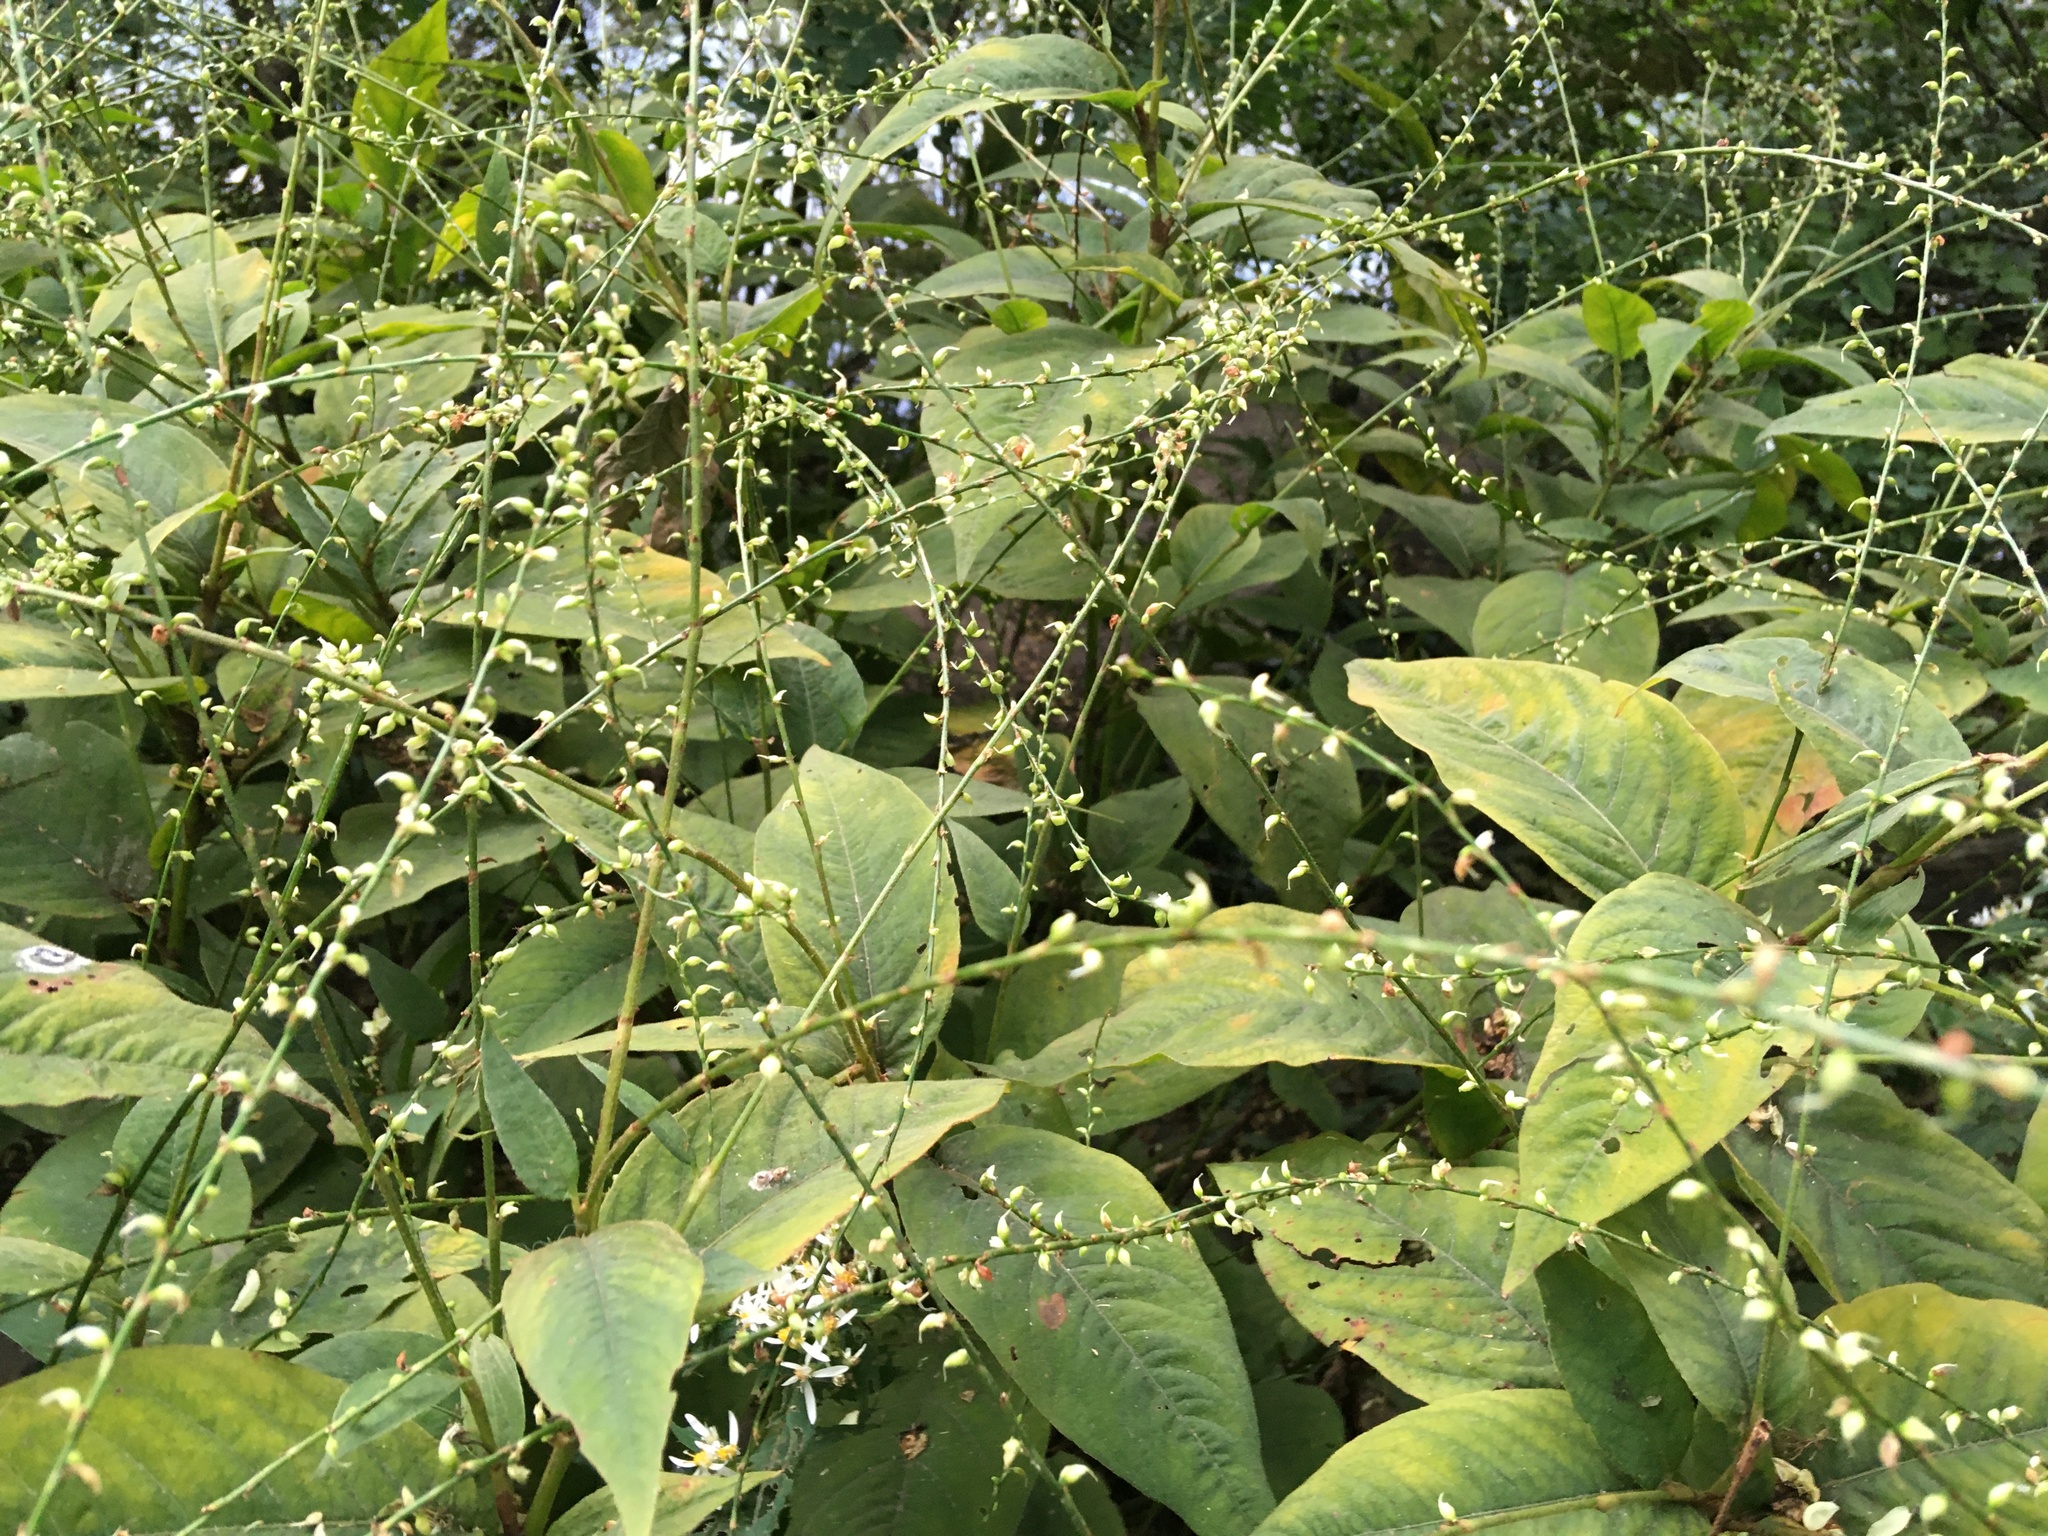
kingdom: Plantae
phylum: Tracheophyta
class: Magnoliopsida
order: Caryophyllales
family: Polygonaceae
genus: Persicaria
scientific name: Persicaria virginiana
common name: Jumpseed
